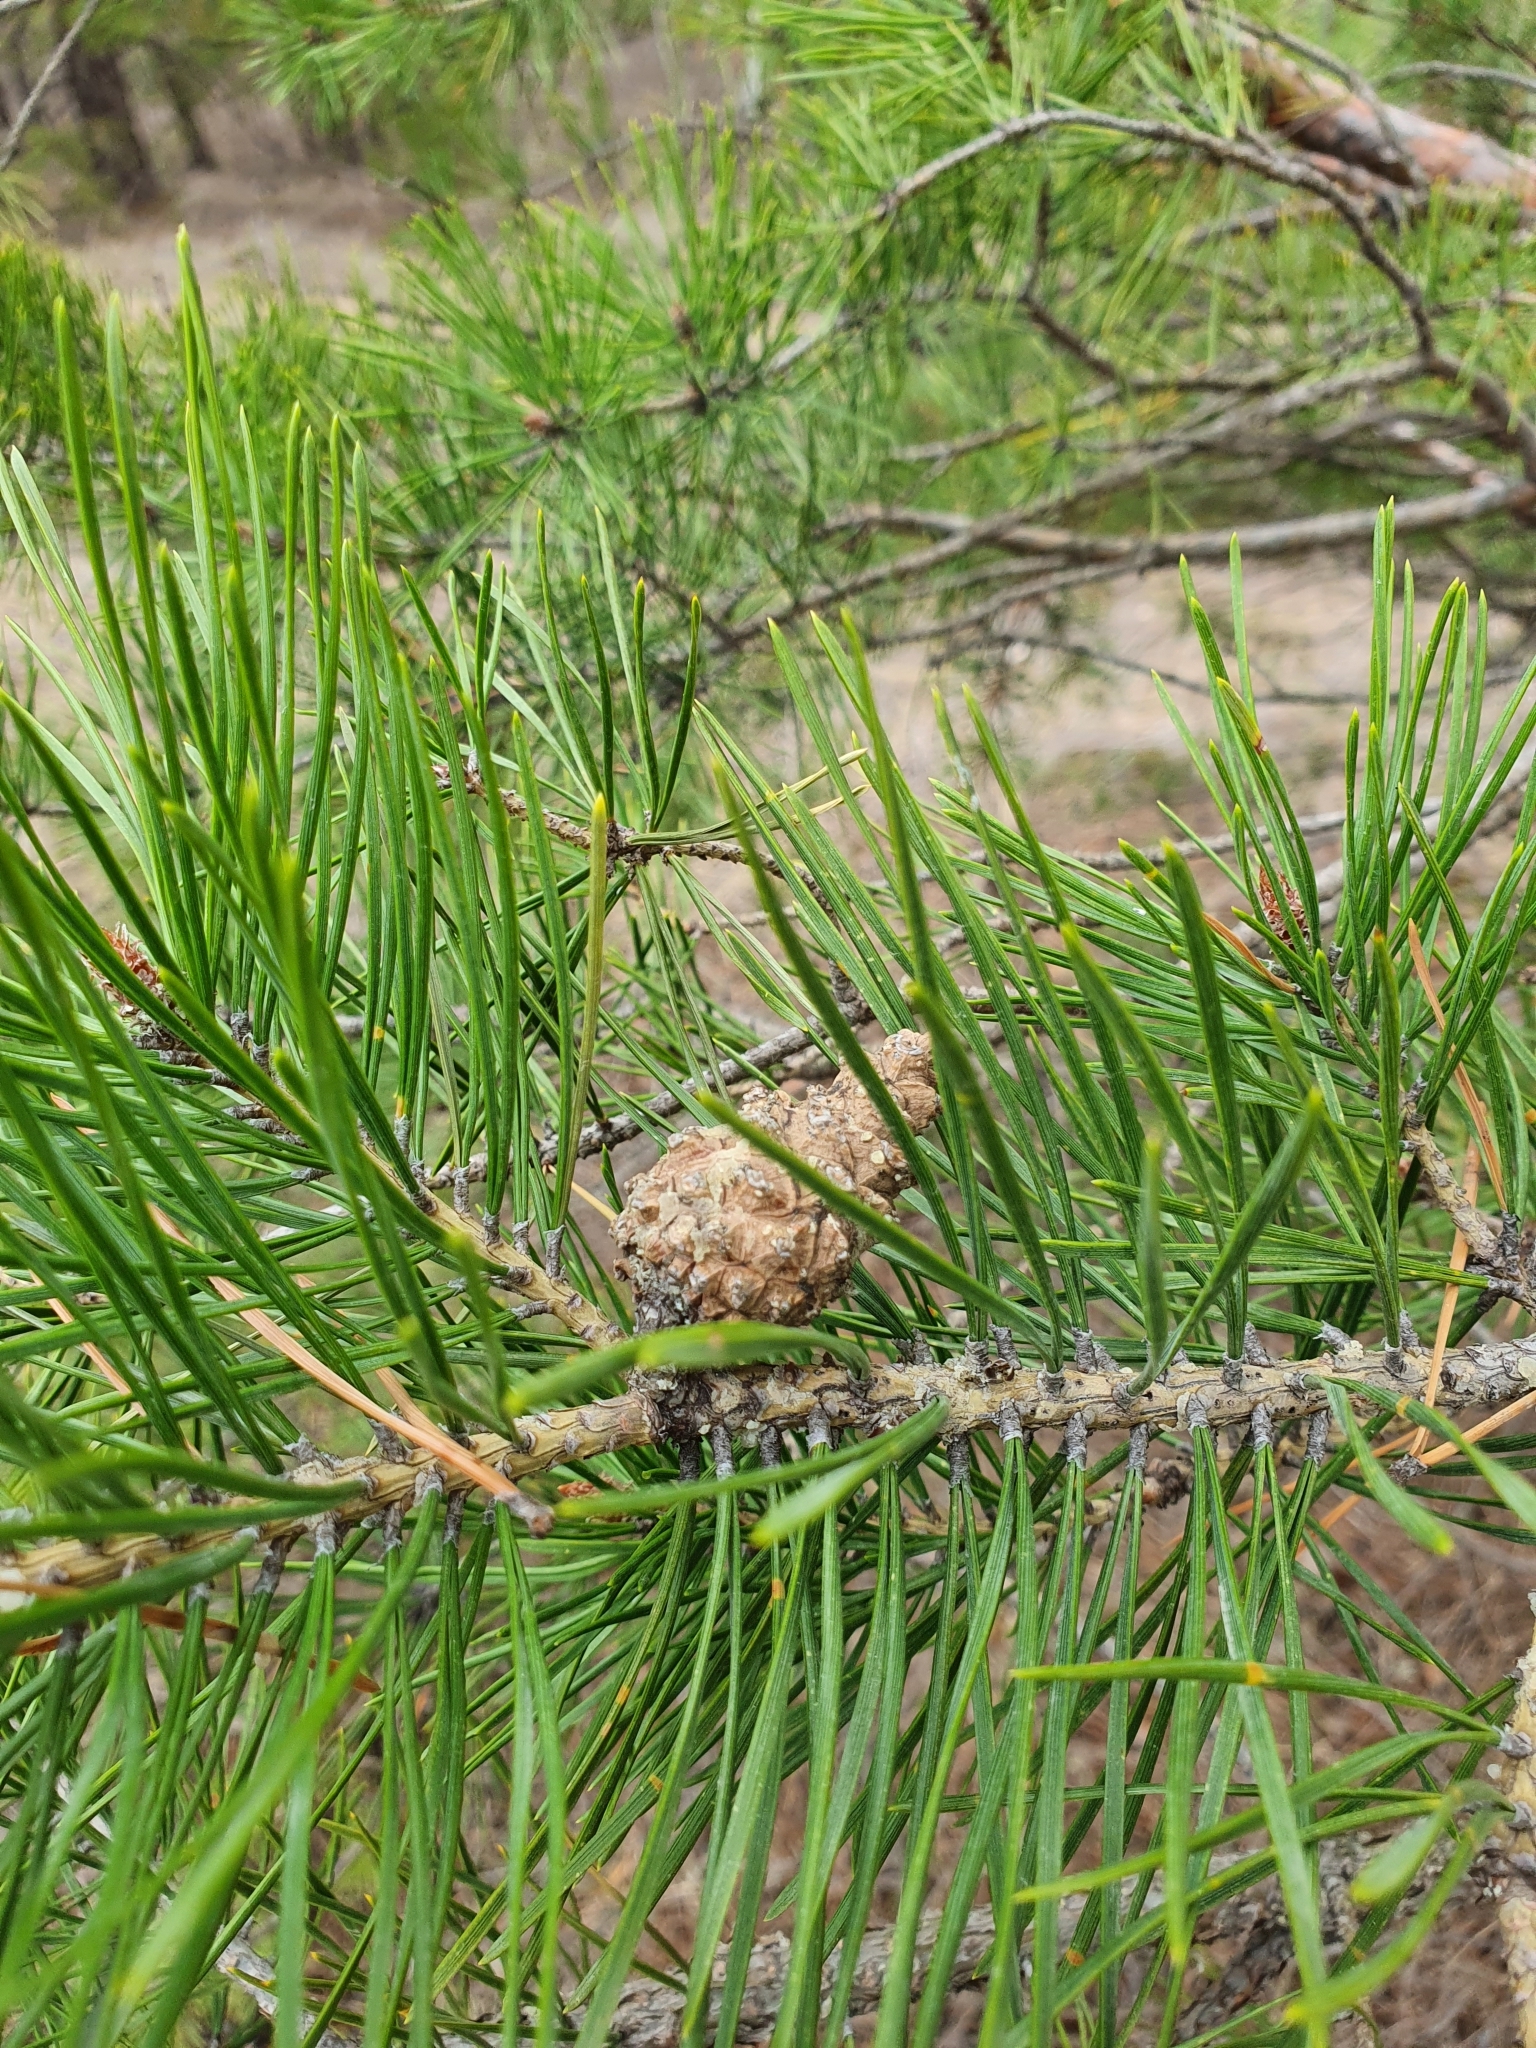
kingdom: Plantae
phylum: Tracheophyta
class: Pinopsida
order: Pinales
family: Pinaceae
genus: Pinus
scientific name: Pinus sylvestris
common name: Scots pine
